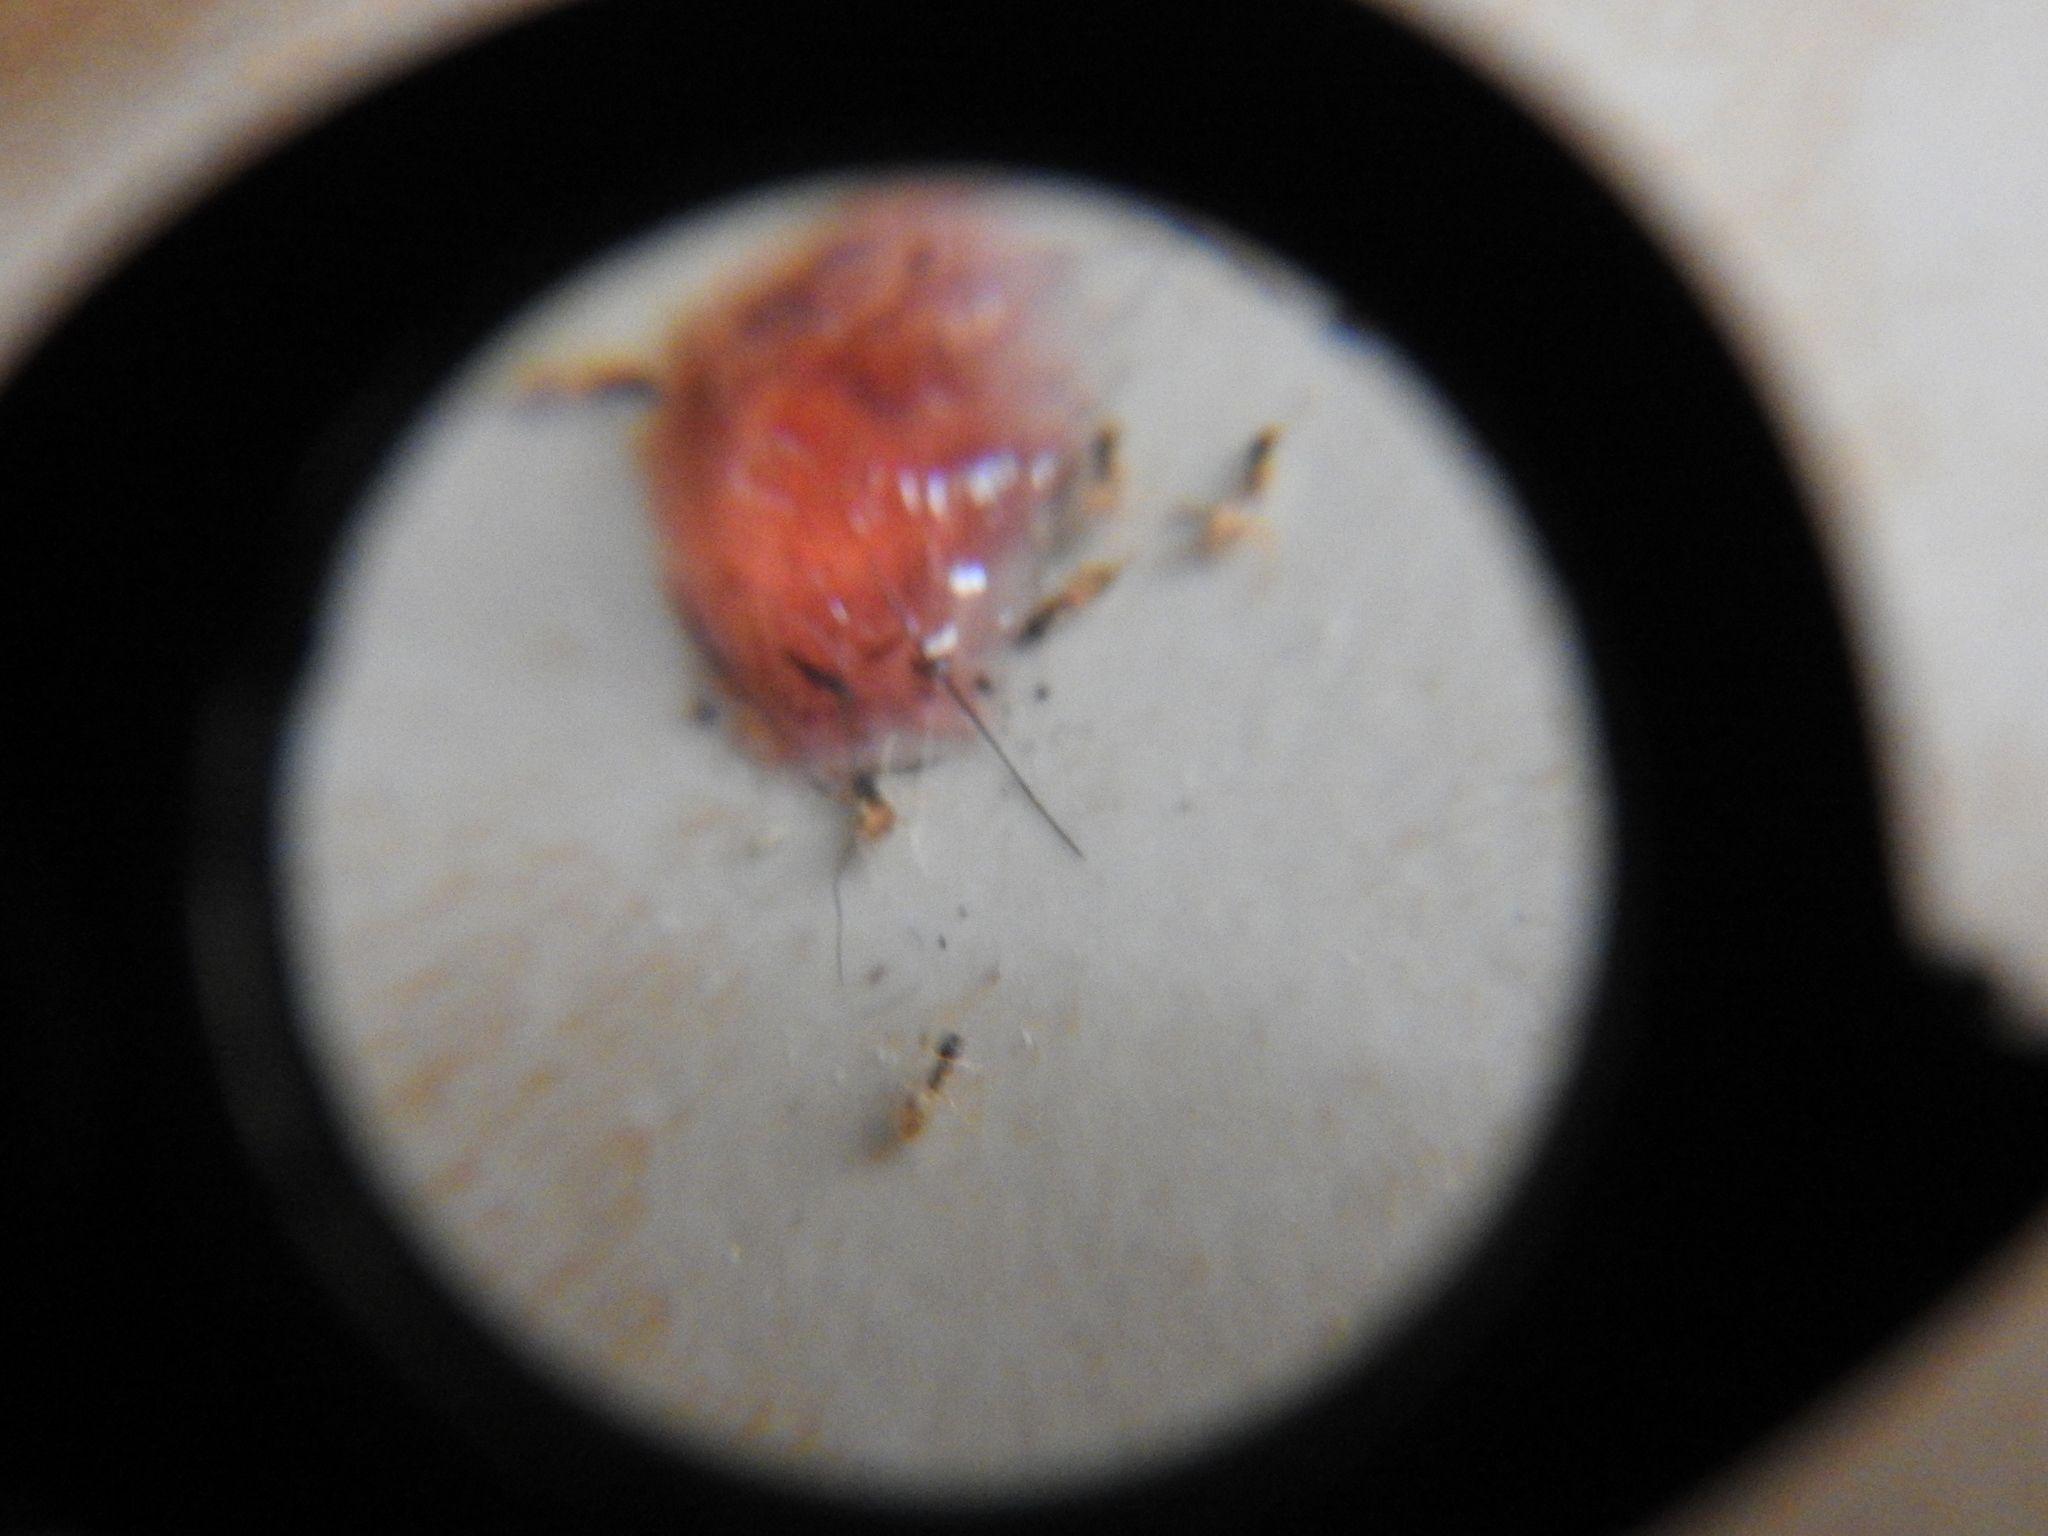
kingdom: Animalia
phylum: Arthropoda
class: Insecta
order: Hymenoptera
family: Formicidae
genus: Tapinoma
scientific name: Tapinoma melanocephalum
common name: Ghost ant
